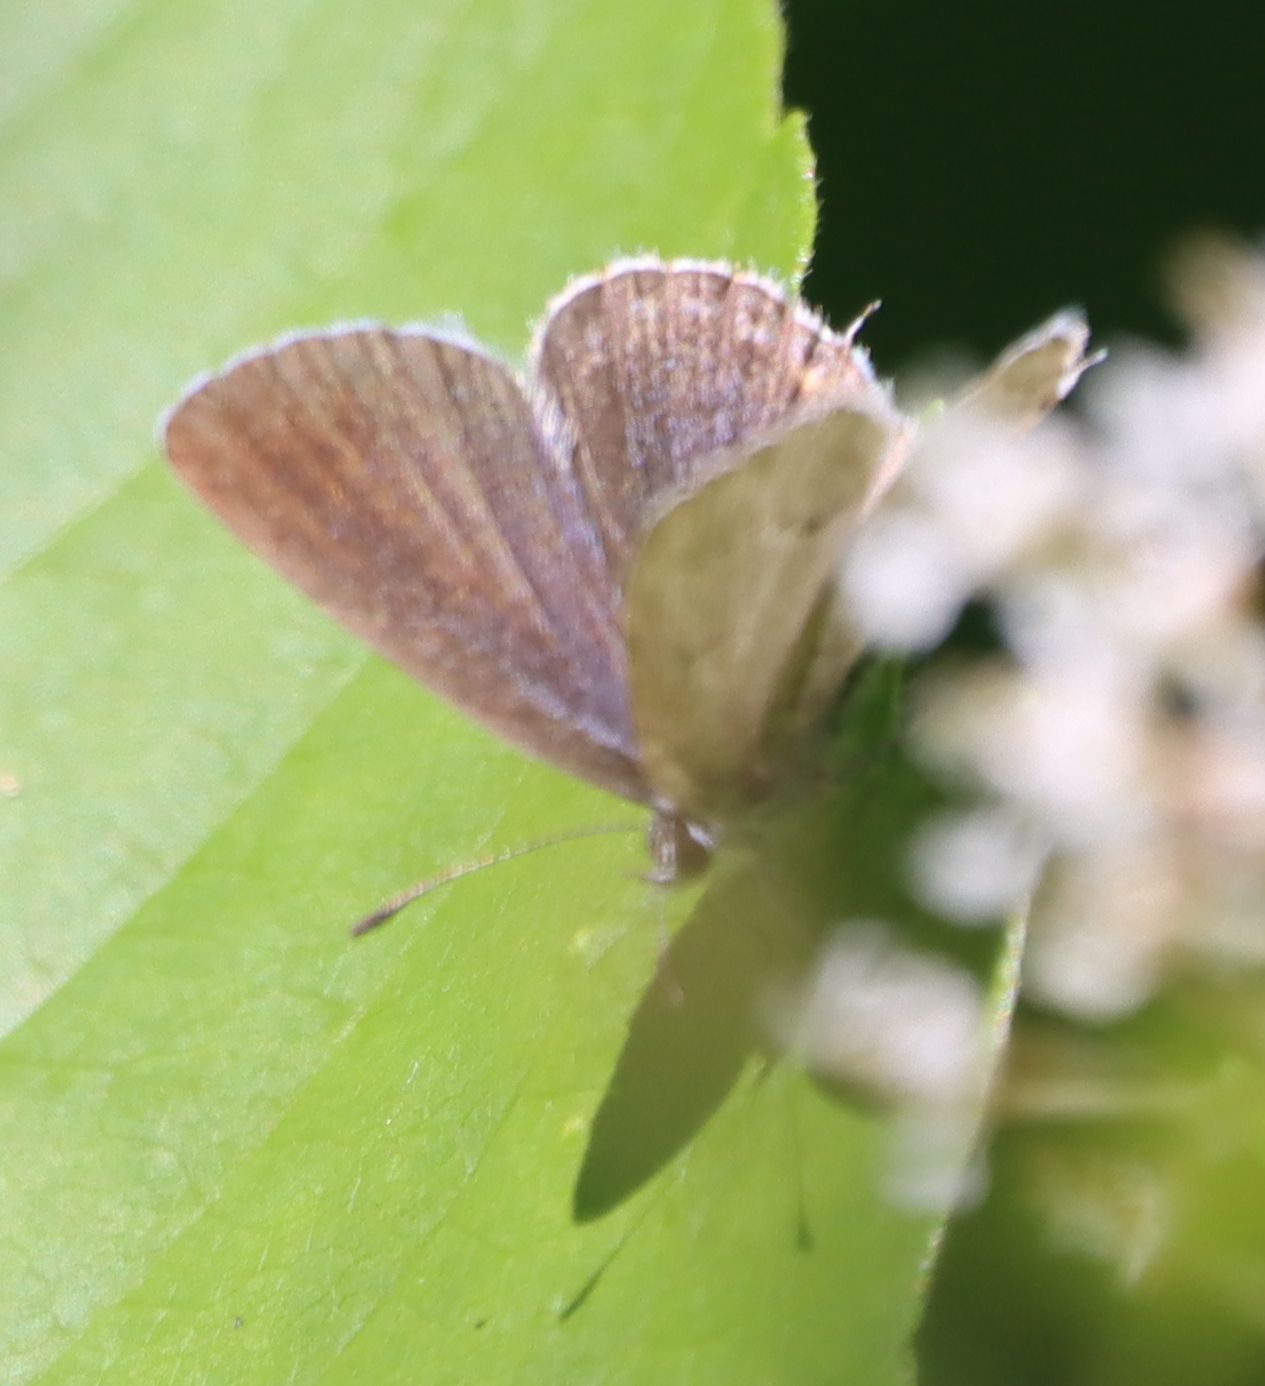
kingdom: Animalia
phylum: Arthropoda
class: Insecta
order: Lepidoptera
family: Lycaenidae
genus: Elkalyce
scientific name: Elkalyce amyntula
